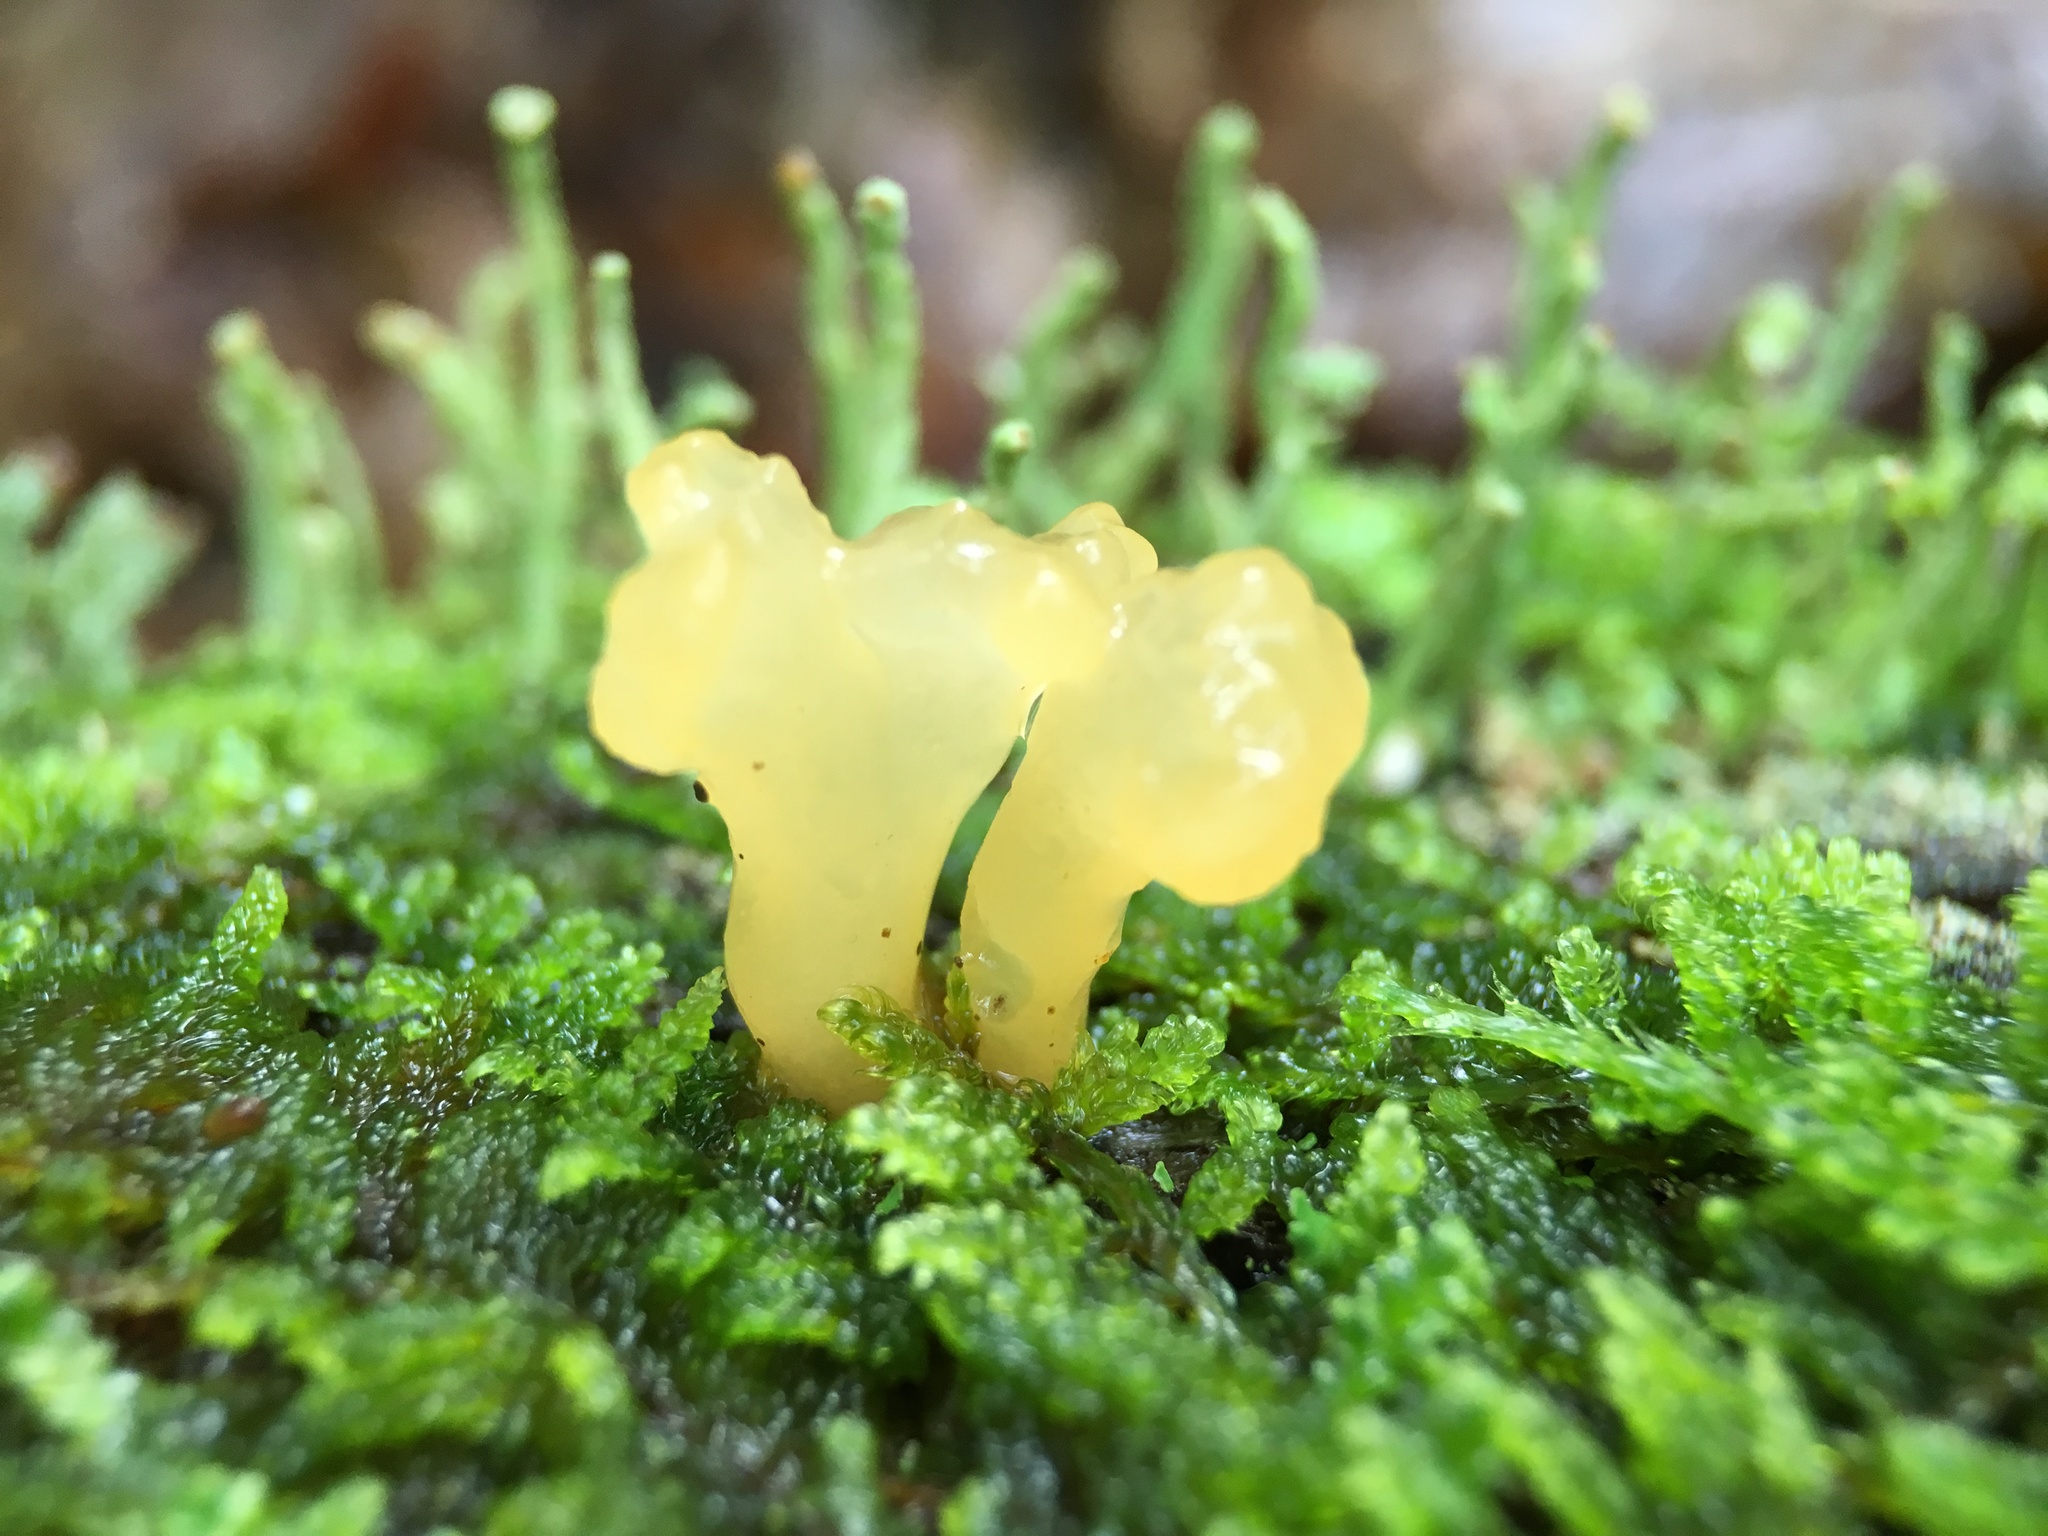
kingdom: Fungi
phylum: Ascomycota
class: Leotiomycetes
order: Leotiales
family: Leotiaceae
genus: Leotia
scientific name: Leotia lubrica
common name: Jellybaby
